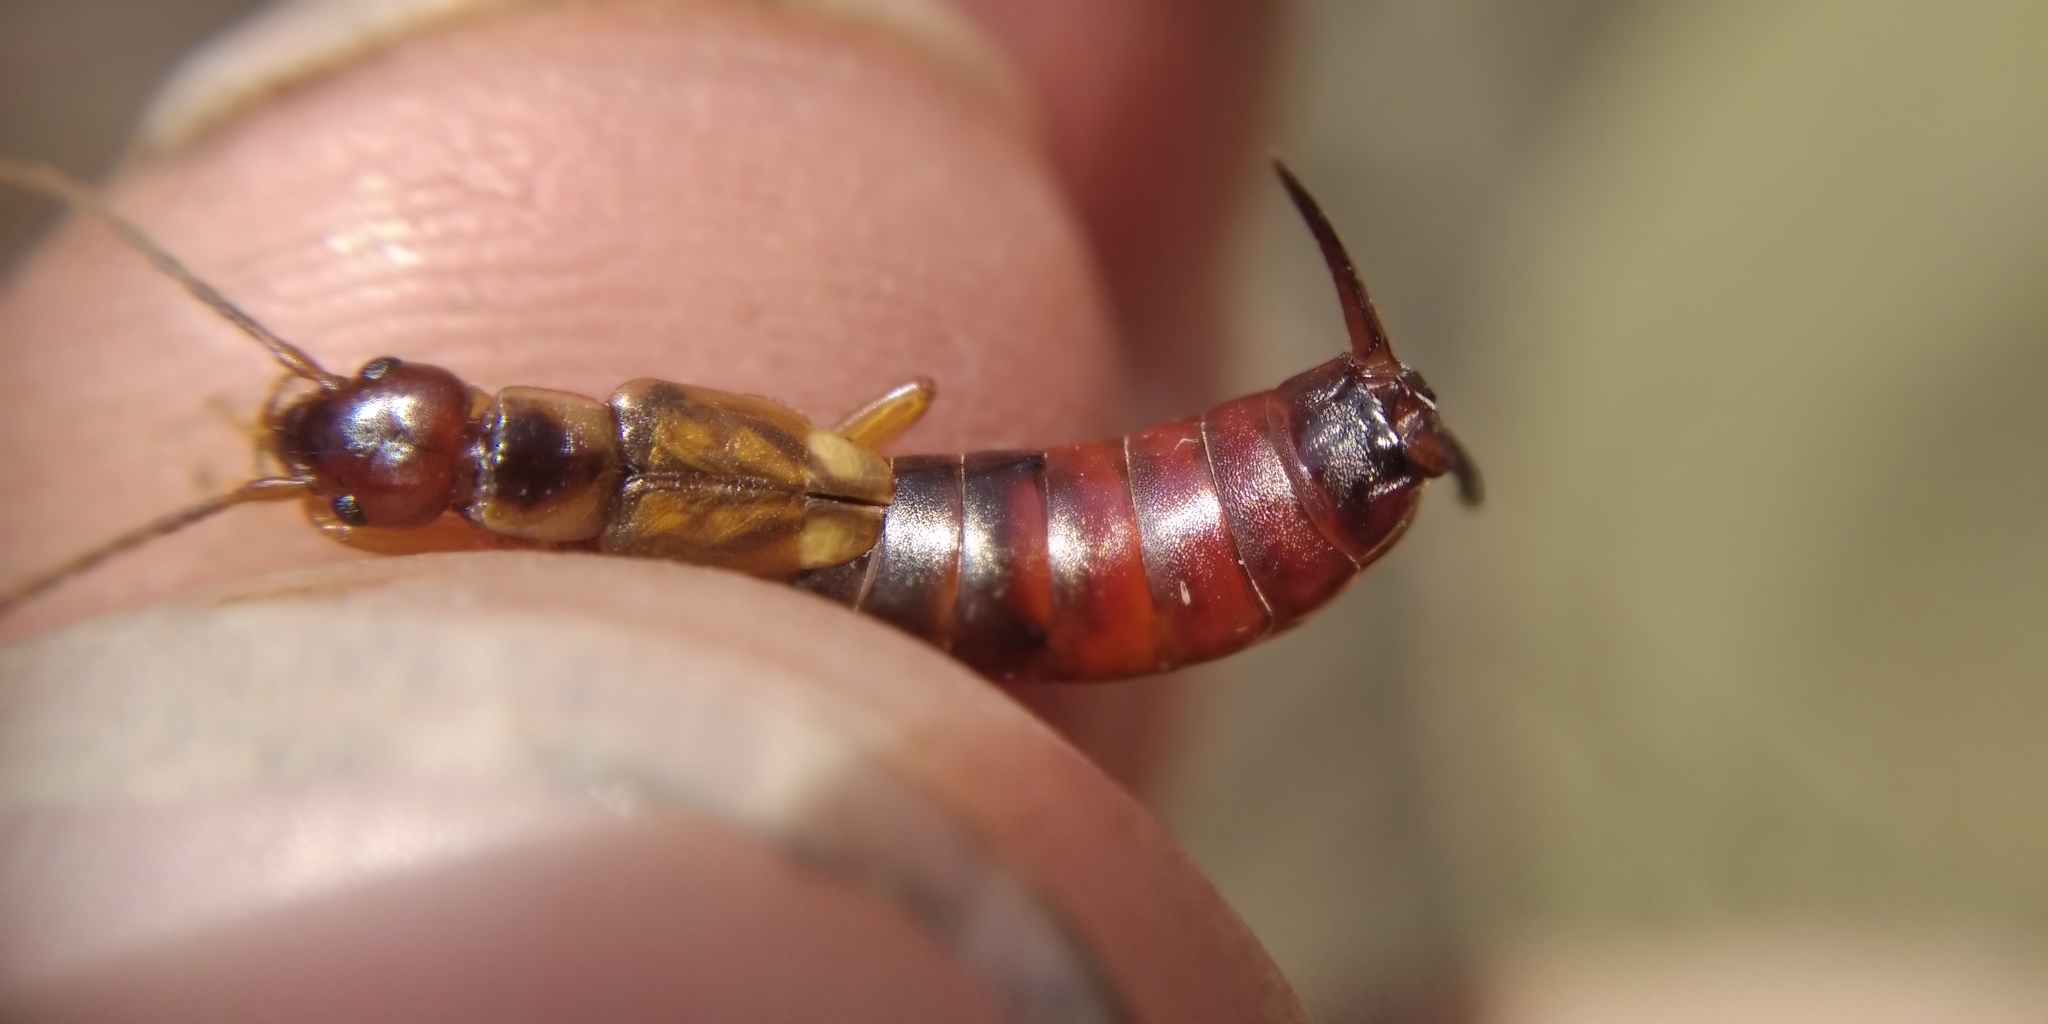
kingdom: Animalia
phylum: Arthropoda
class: Insecta
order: Dermaptera
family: Forficulidae
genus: Forficula
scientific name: Forficula
